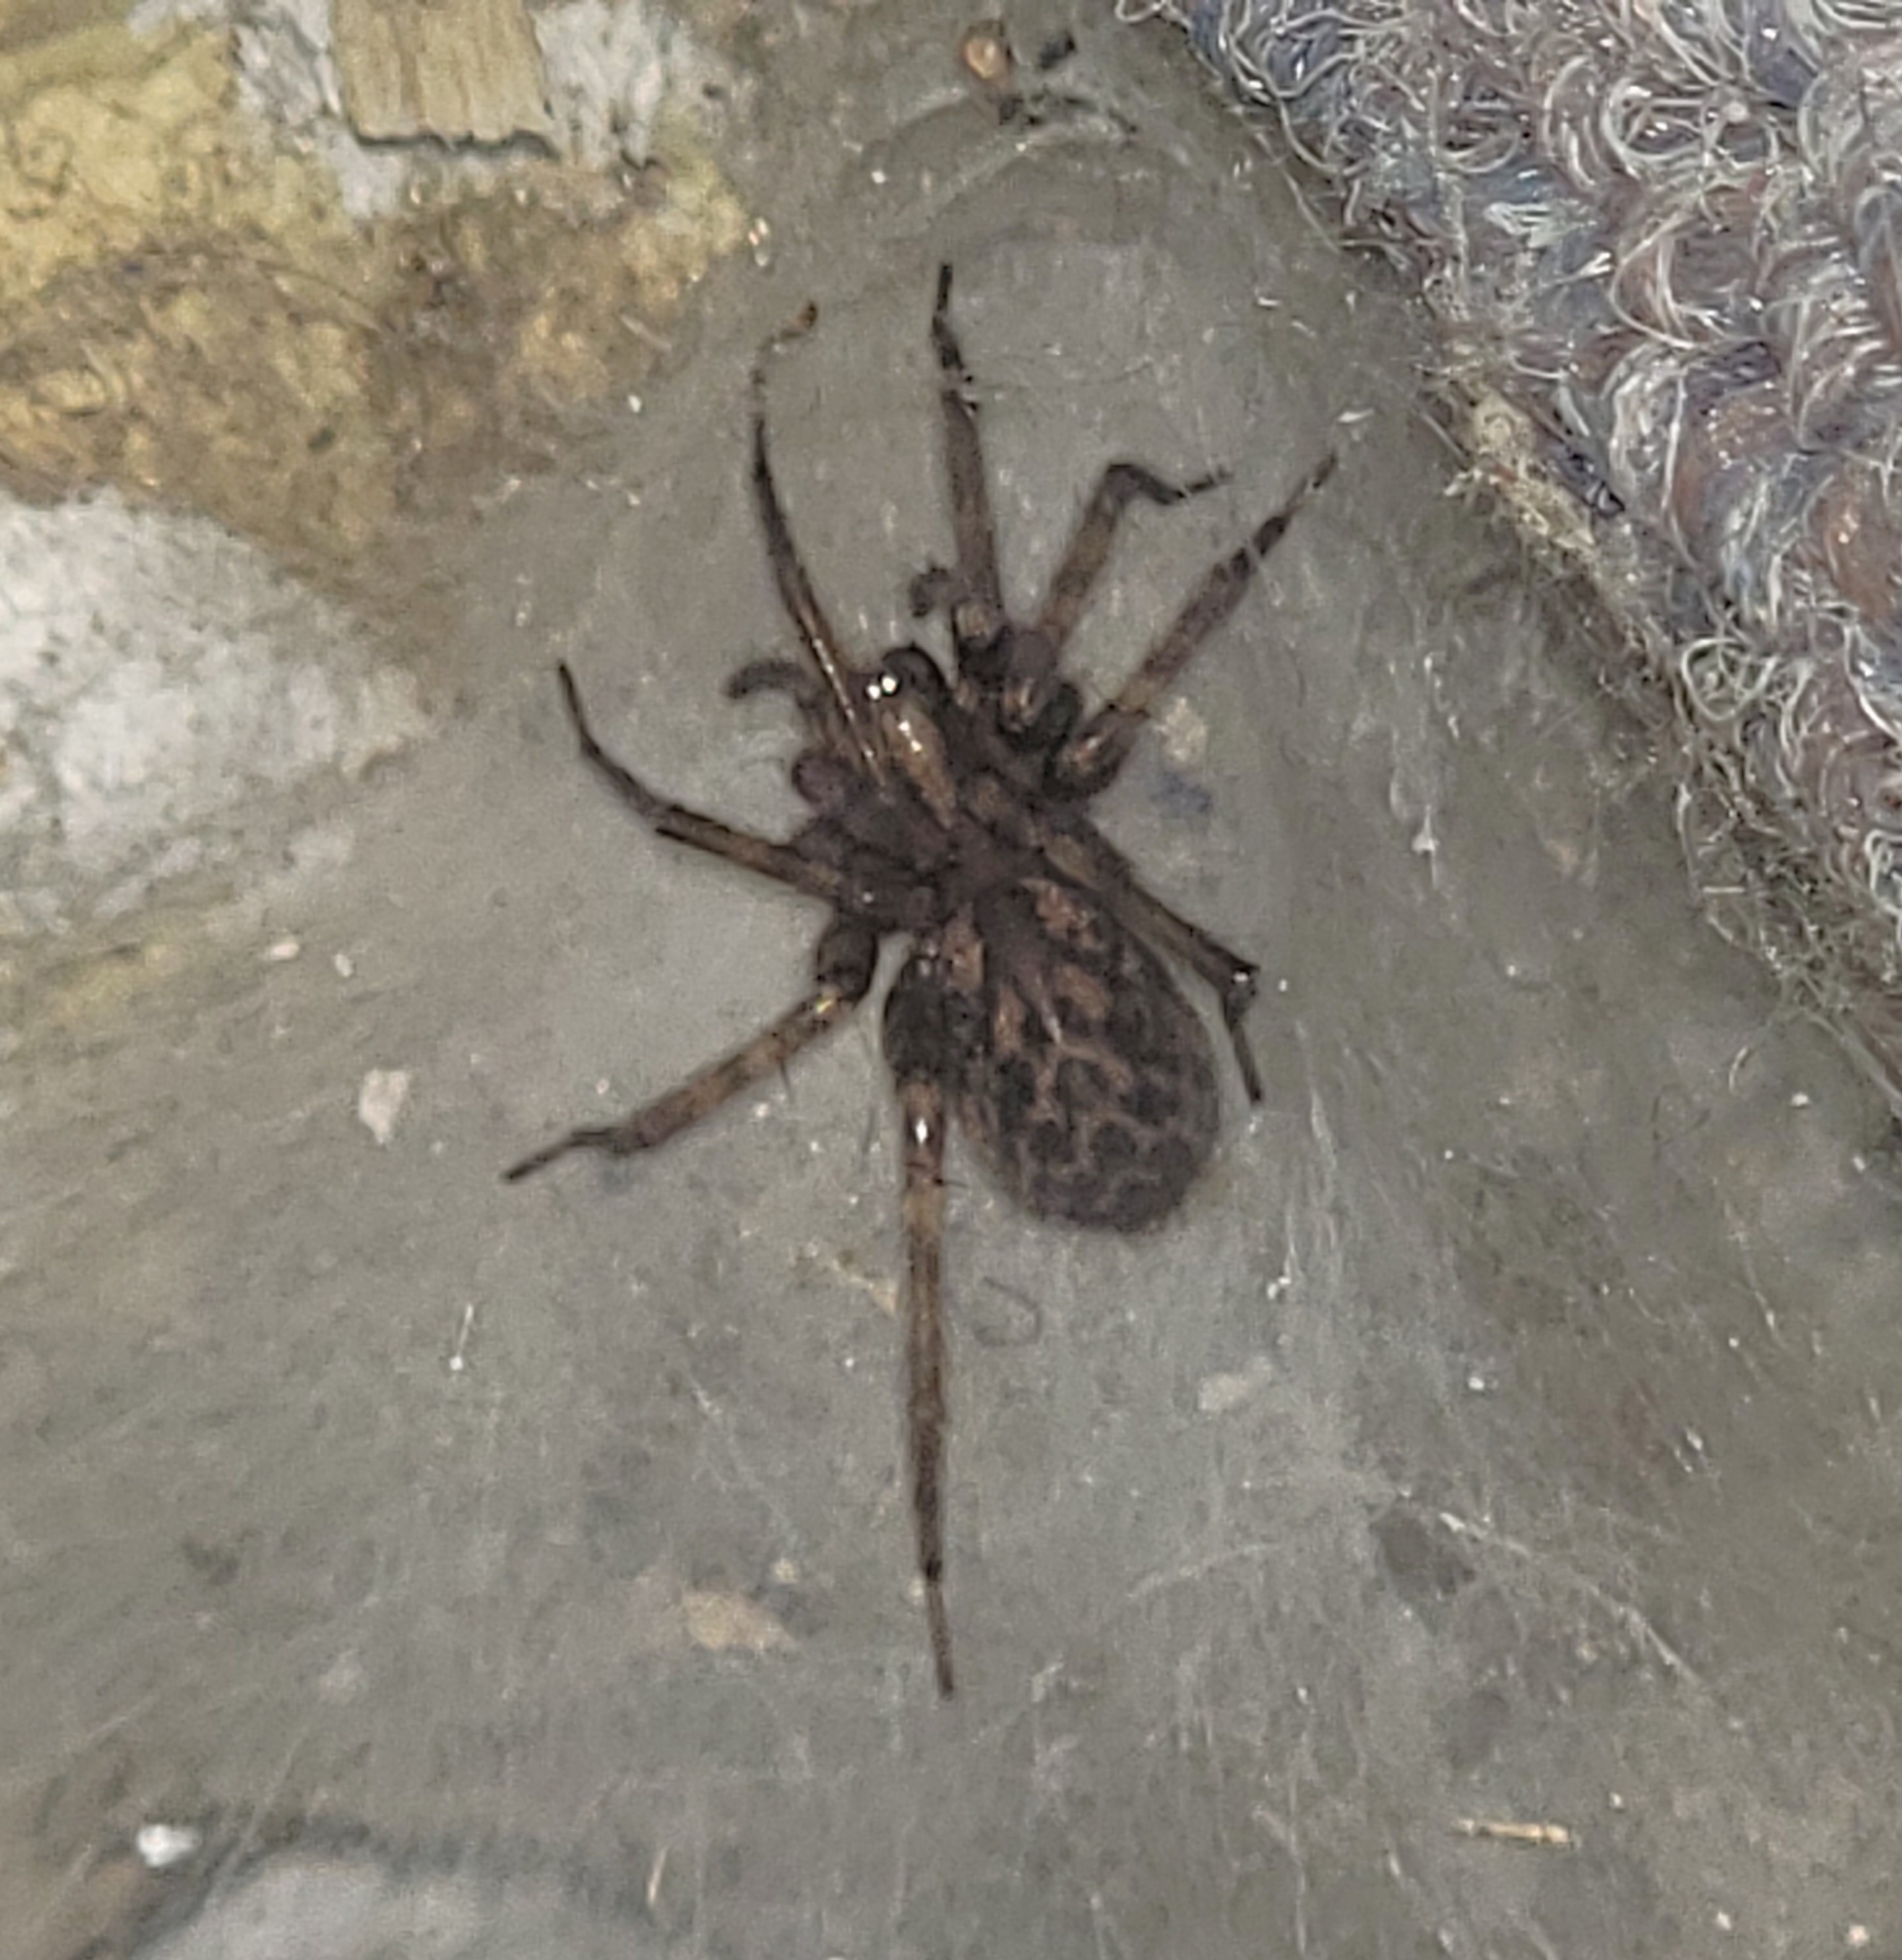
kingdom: Animalia
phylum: Arthropoda
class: Arachnida
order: Araneae
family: Agelenidae
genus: Tegenaria
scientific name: Tegenaria domestica
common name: Barn funnel weaver
